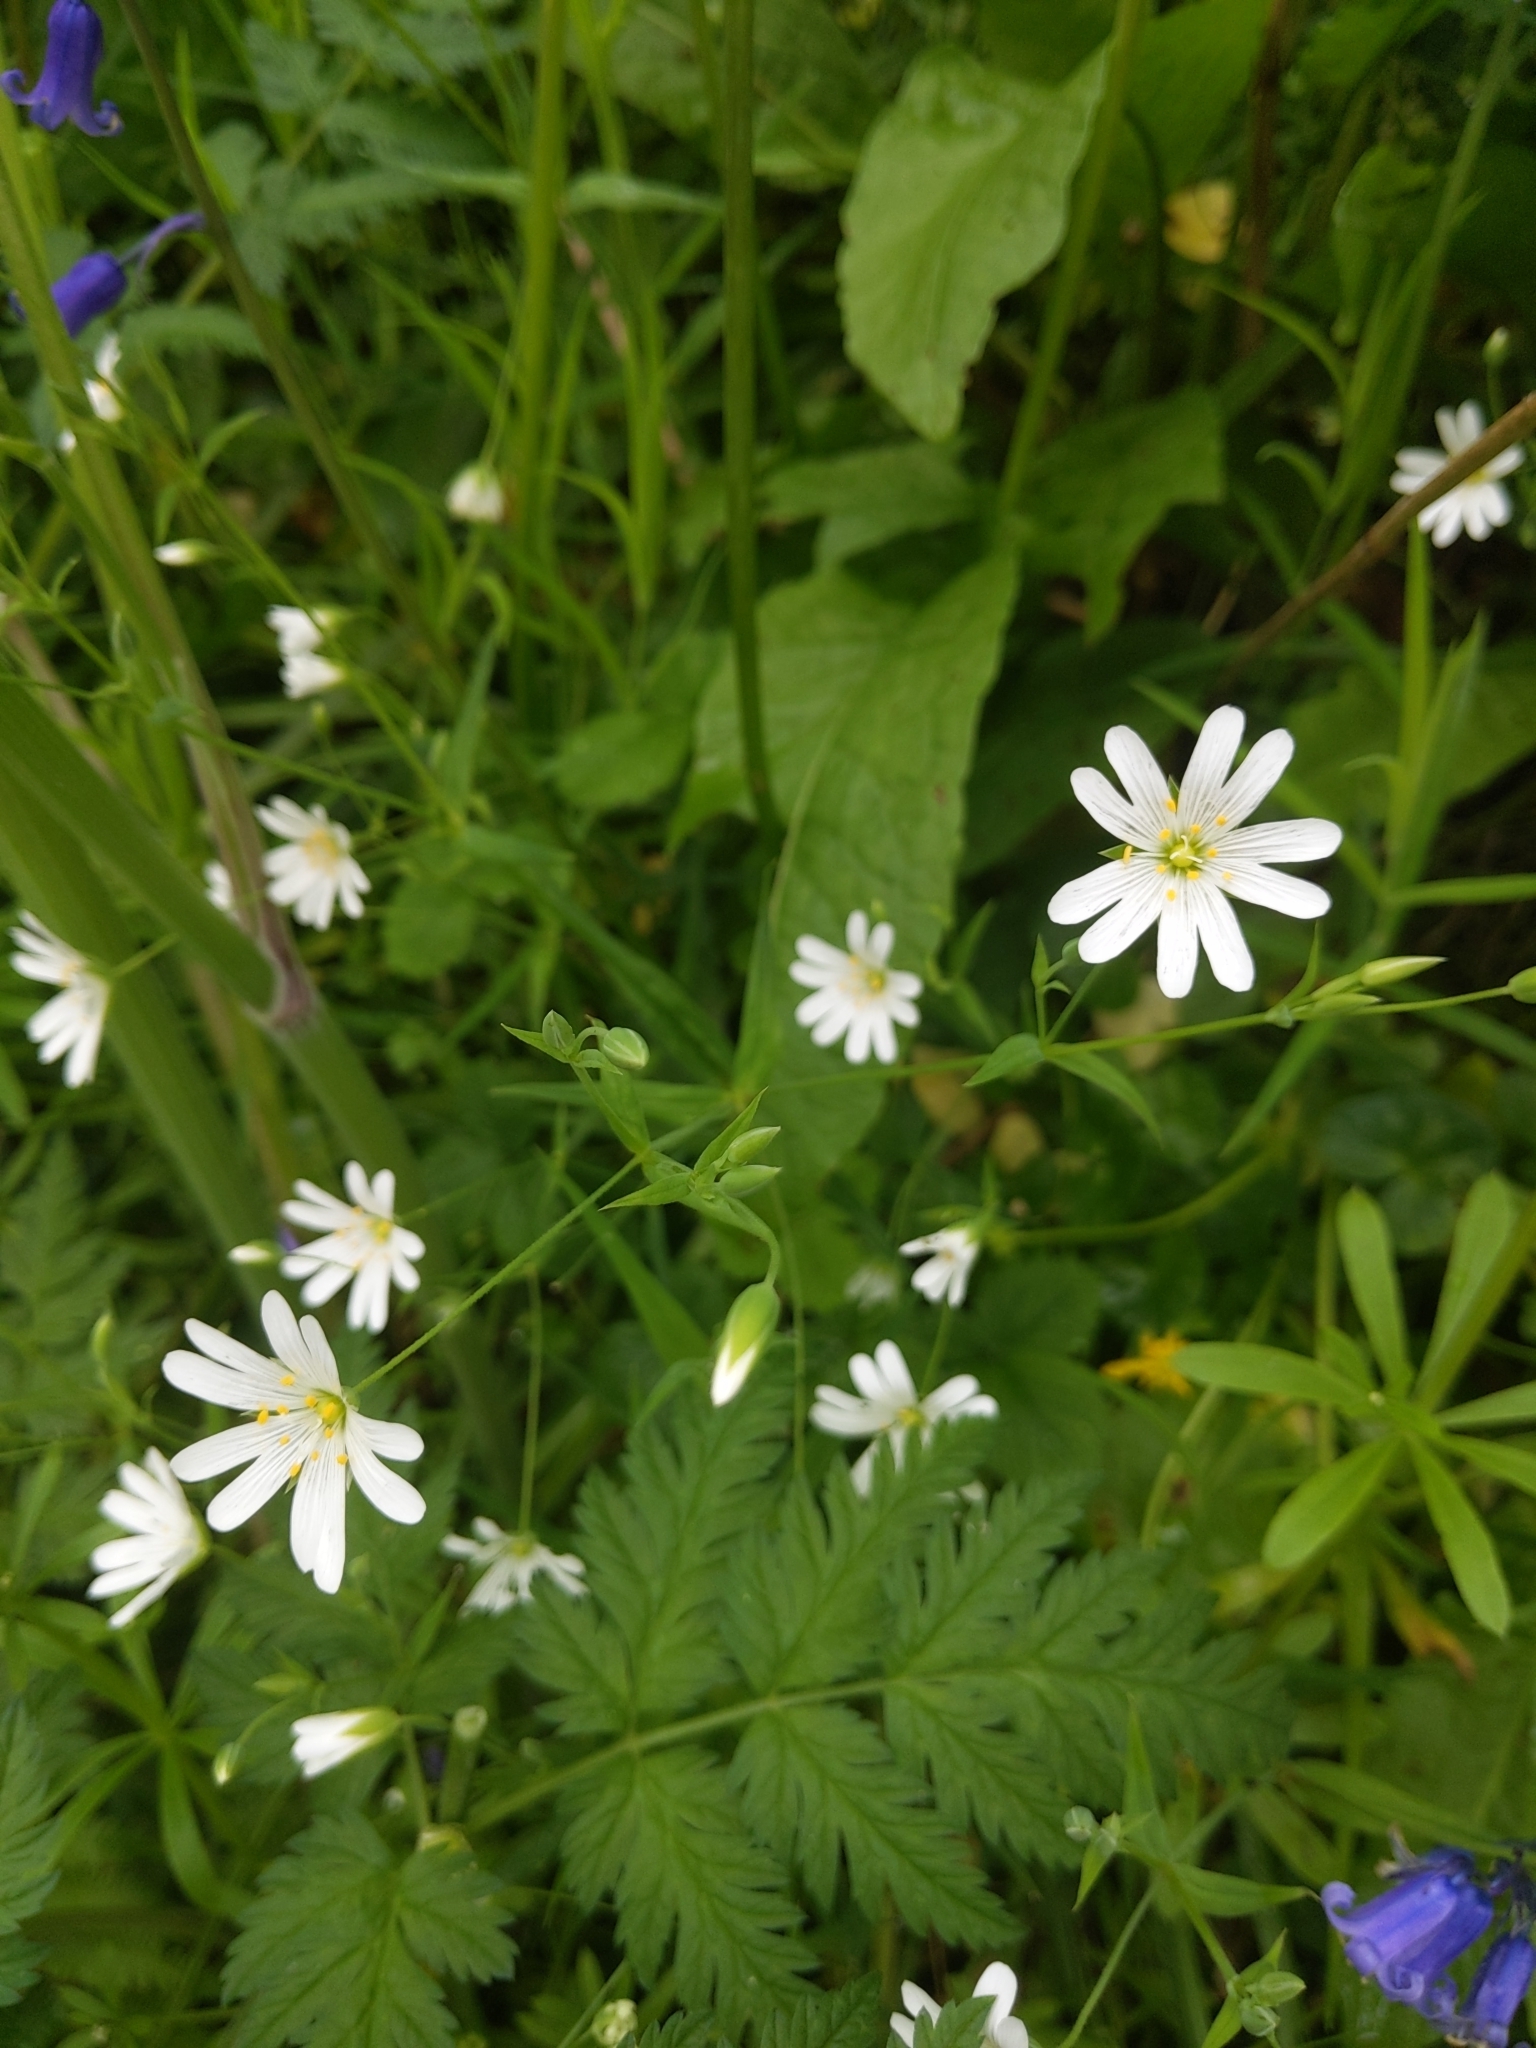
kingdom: Plantae
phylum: Tracheophyta
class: Magnoliopsida
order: Caryophyllales
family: Caryophyllaceae
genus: Rabelera
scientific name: Rabelera holostea
